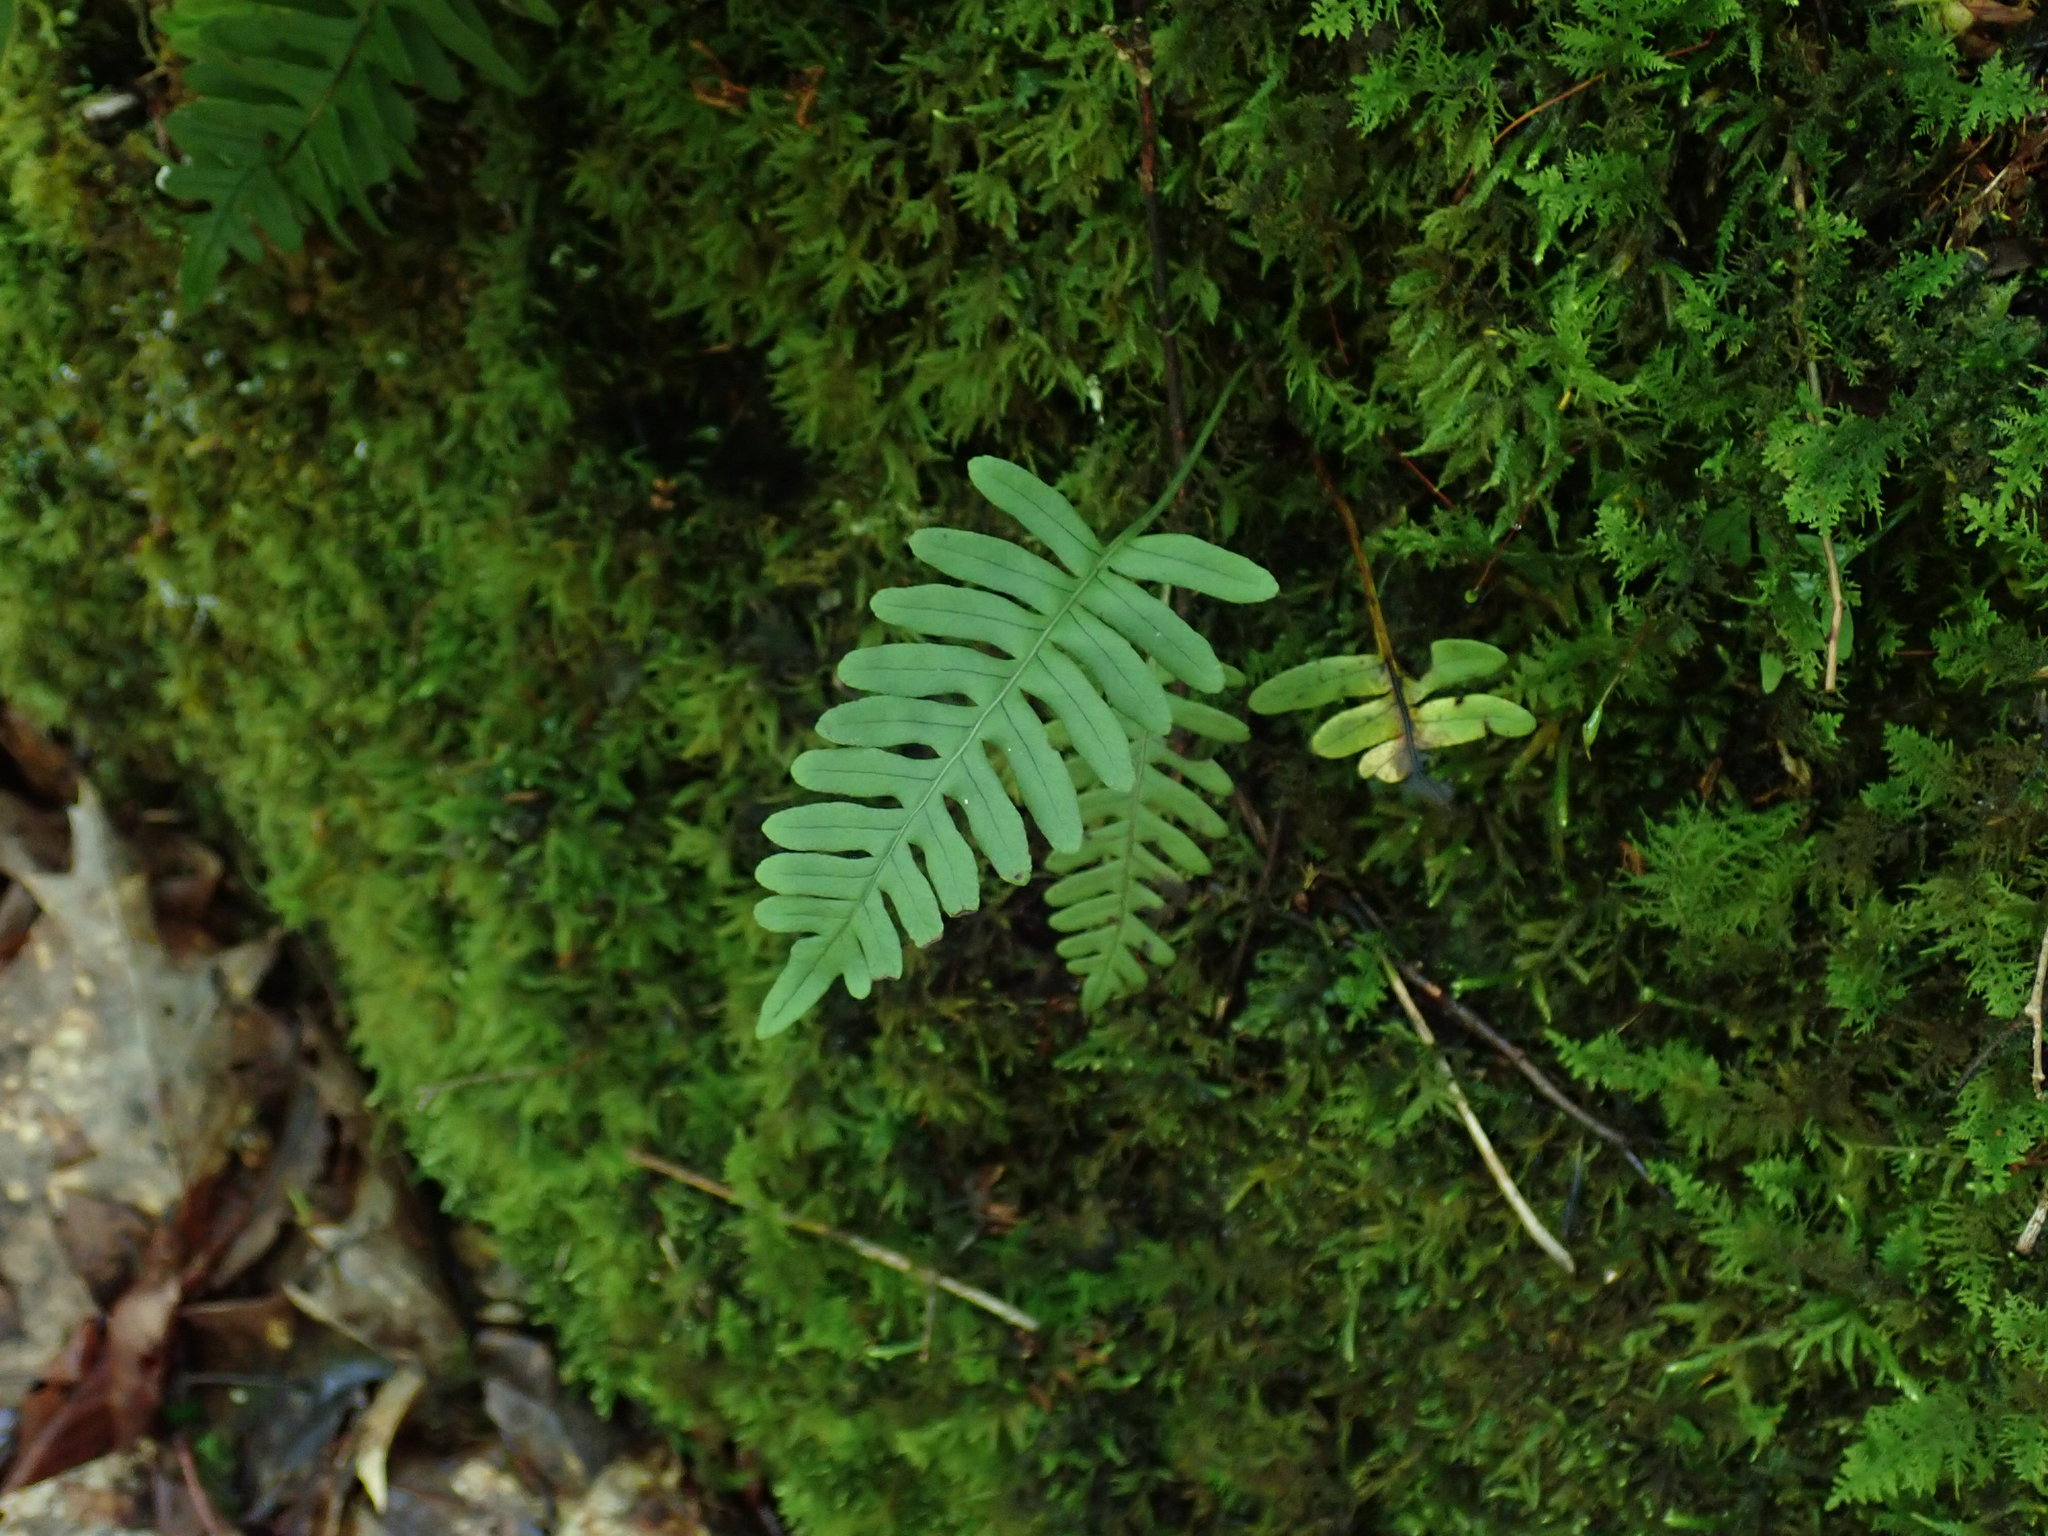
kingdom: Plantae
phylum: Tracheophyta
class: Polypodiopsida
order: Polypodiales
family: Polypodiaceae
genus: Polypodium
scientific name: Polypodium
